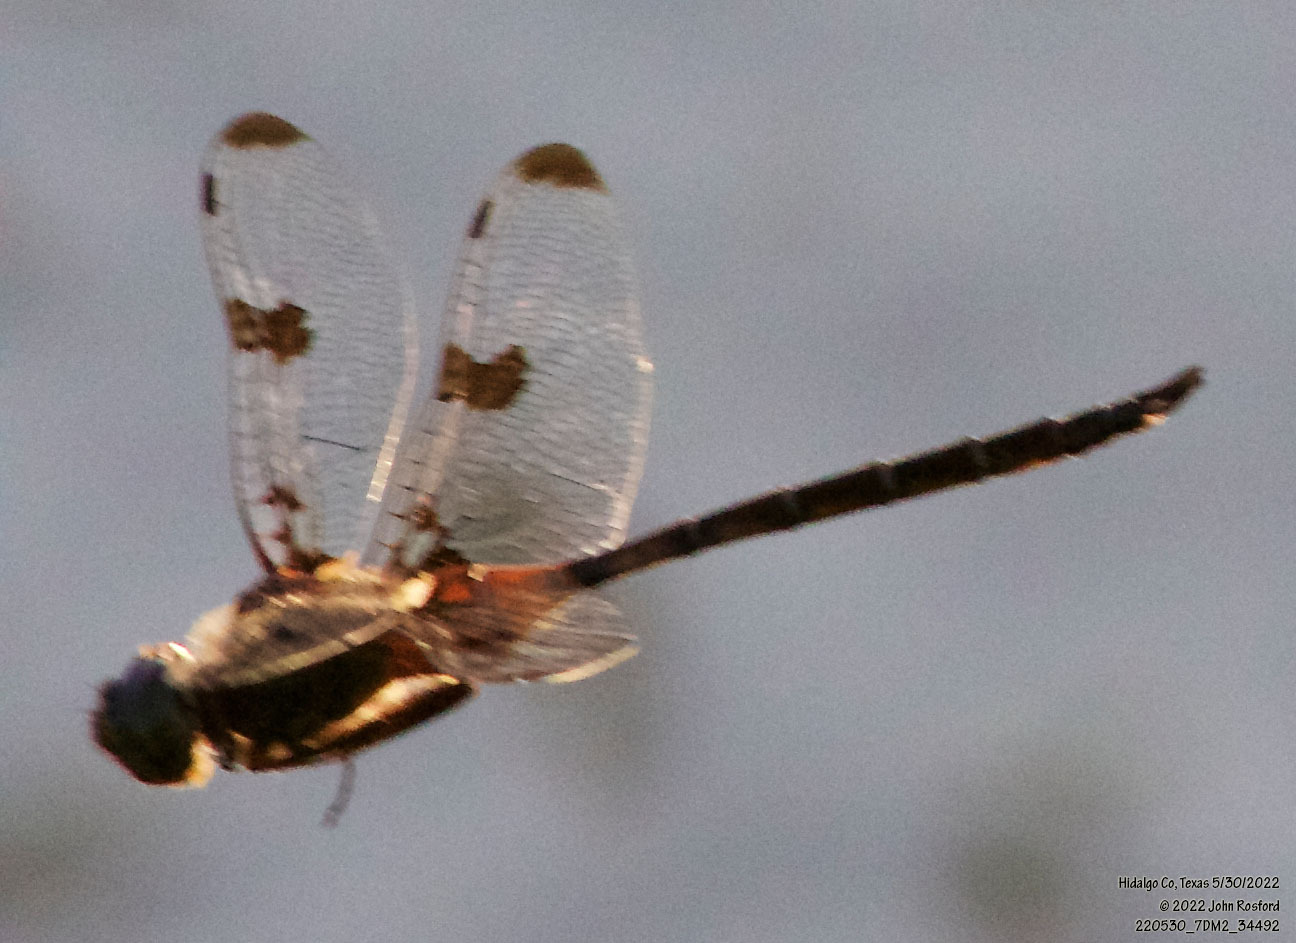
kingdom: Animalia
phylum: Arthropoda
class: Insecta
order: Odonata
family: Corduliidae
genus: Epitheca
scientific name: Epitheca princeps
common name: Prince baskettail
